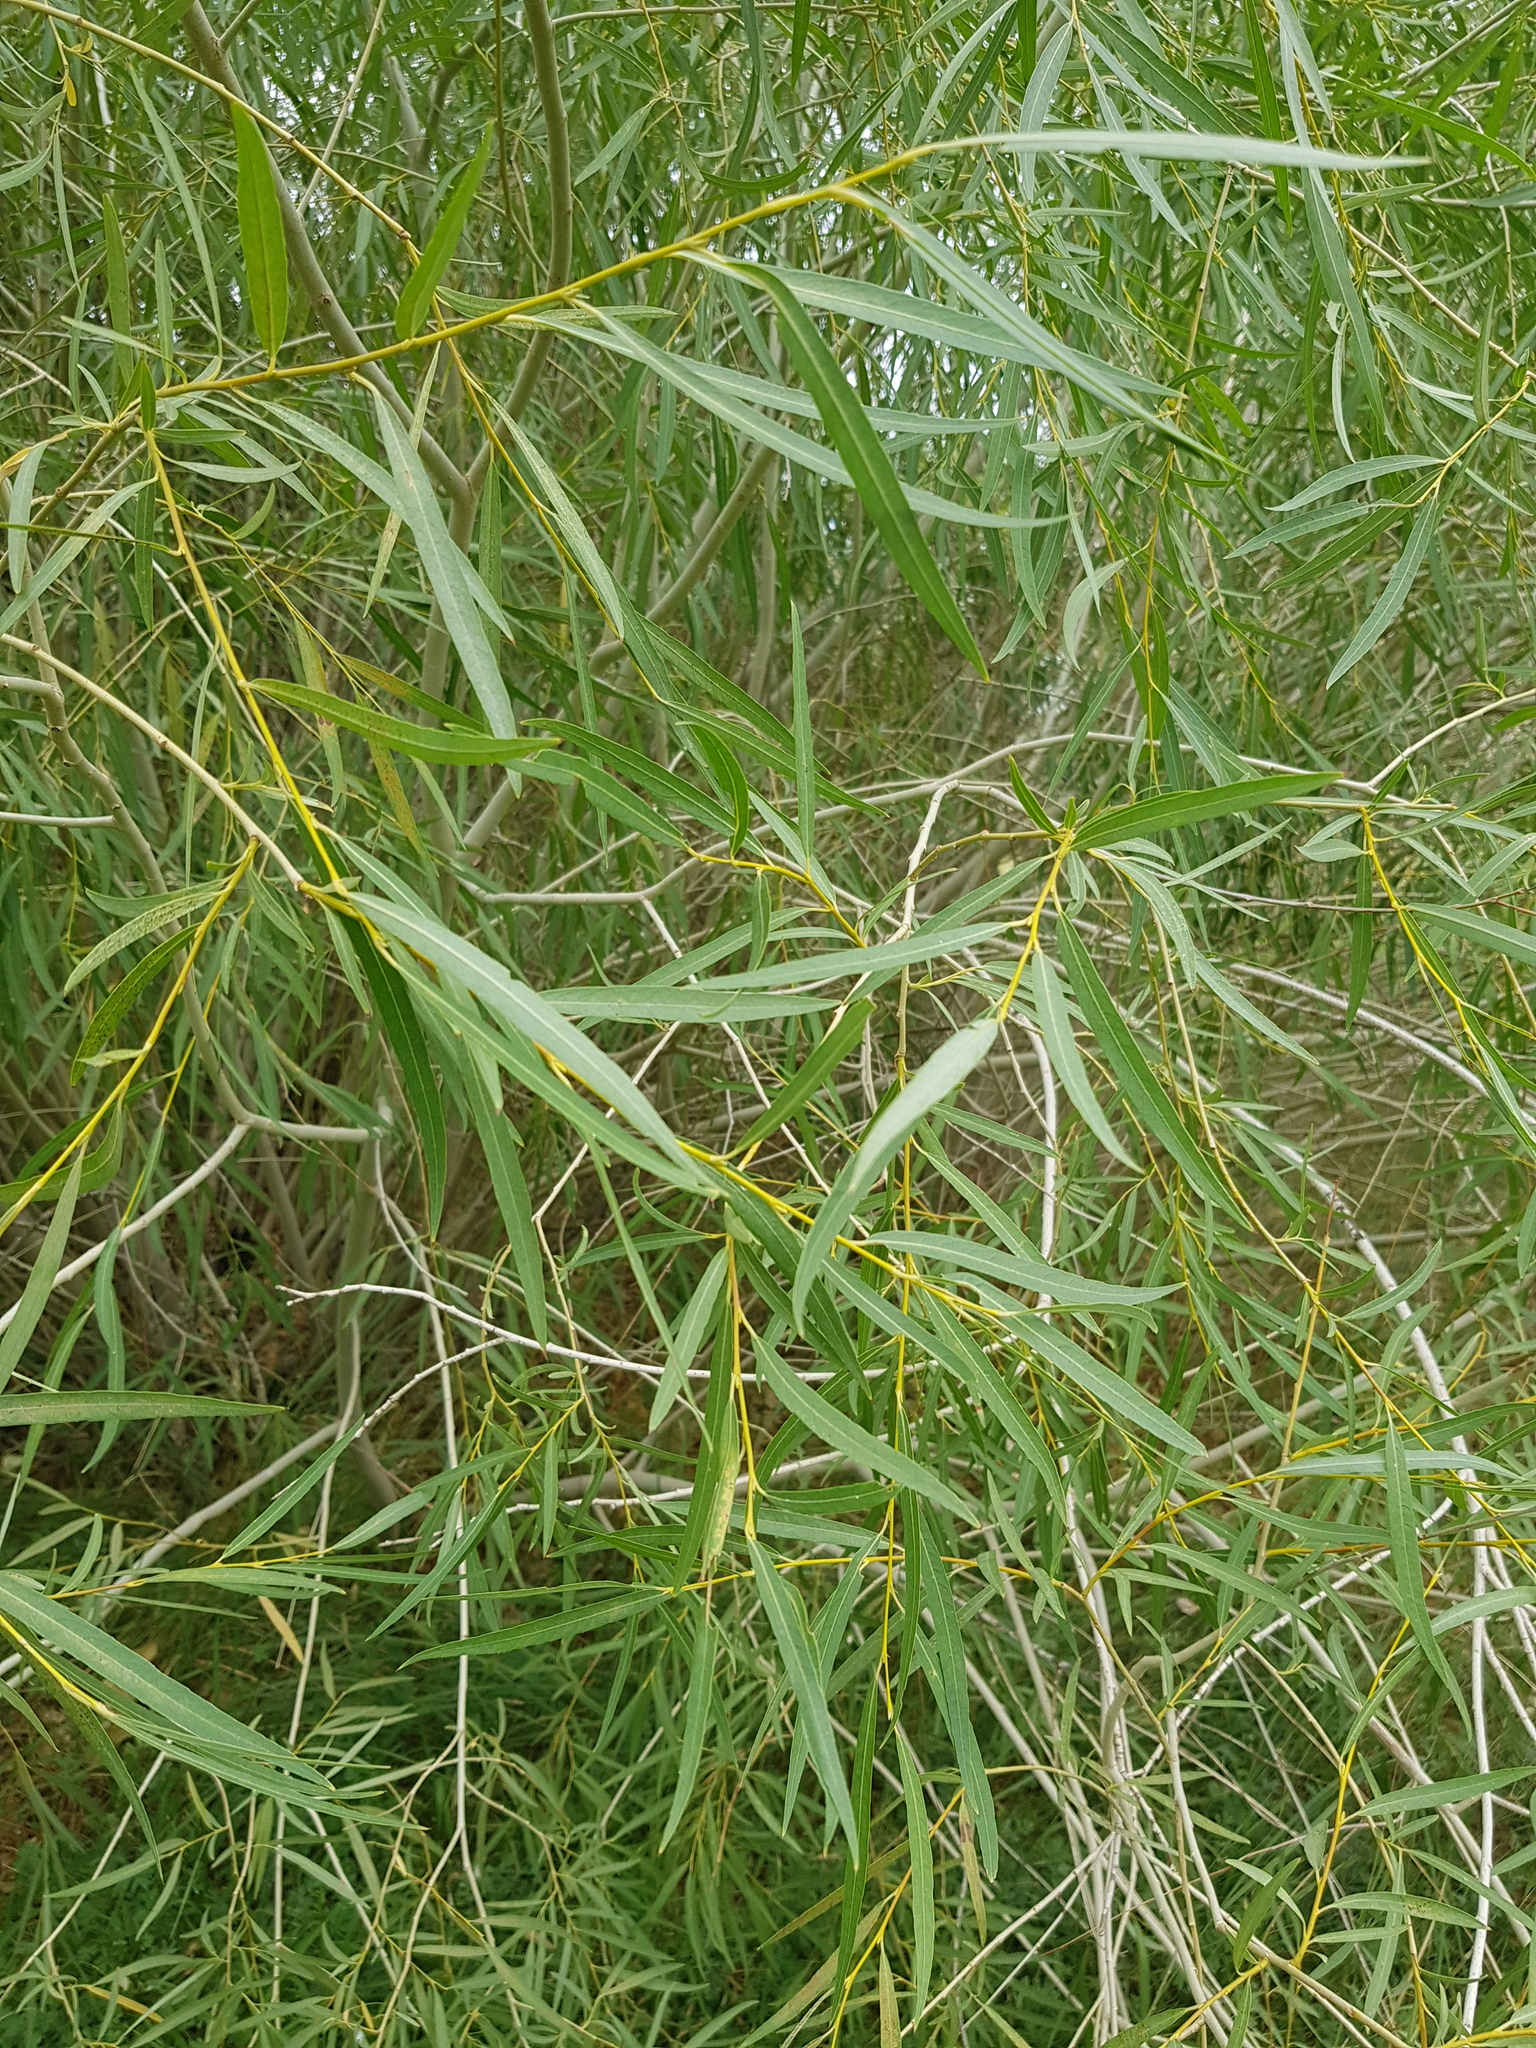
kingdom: Plantae
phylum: Tracheophyta
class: Magnoliopsida
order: Malpighiales
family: Salicaceae
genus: Salix
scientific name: Salix tenuijulis
